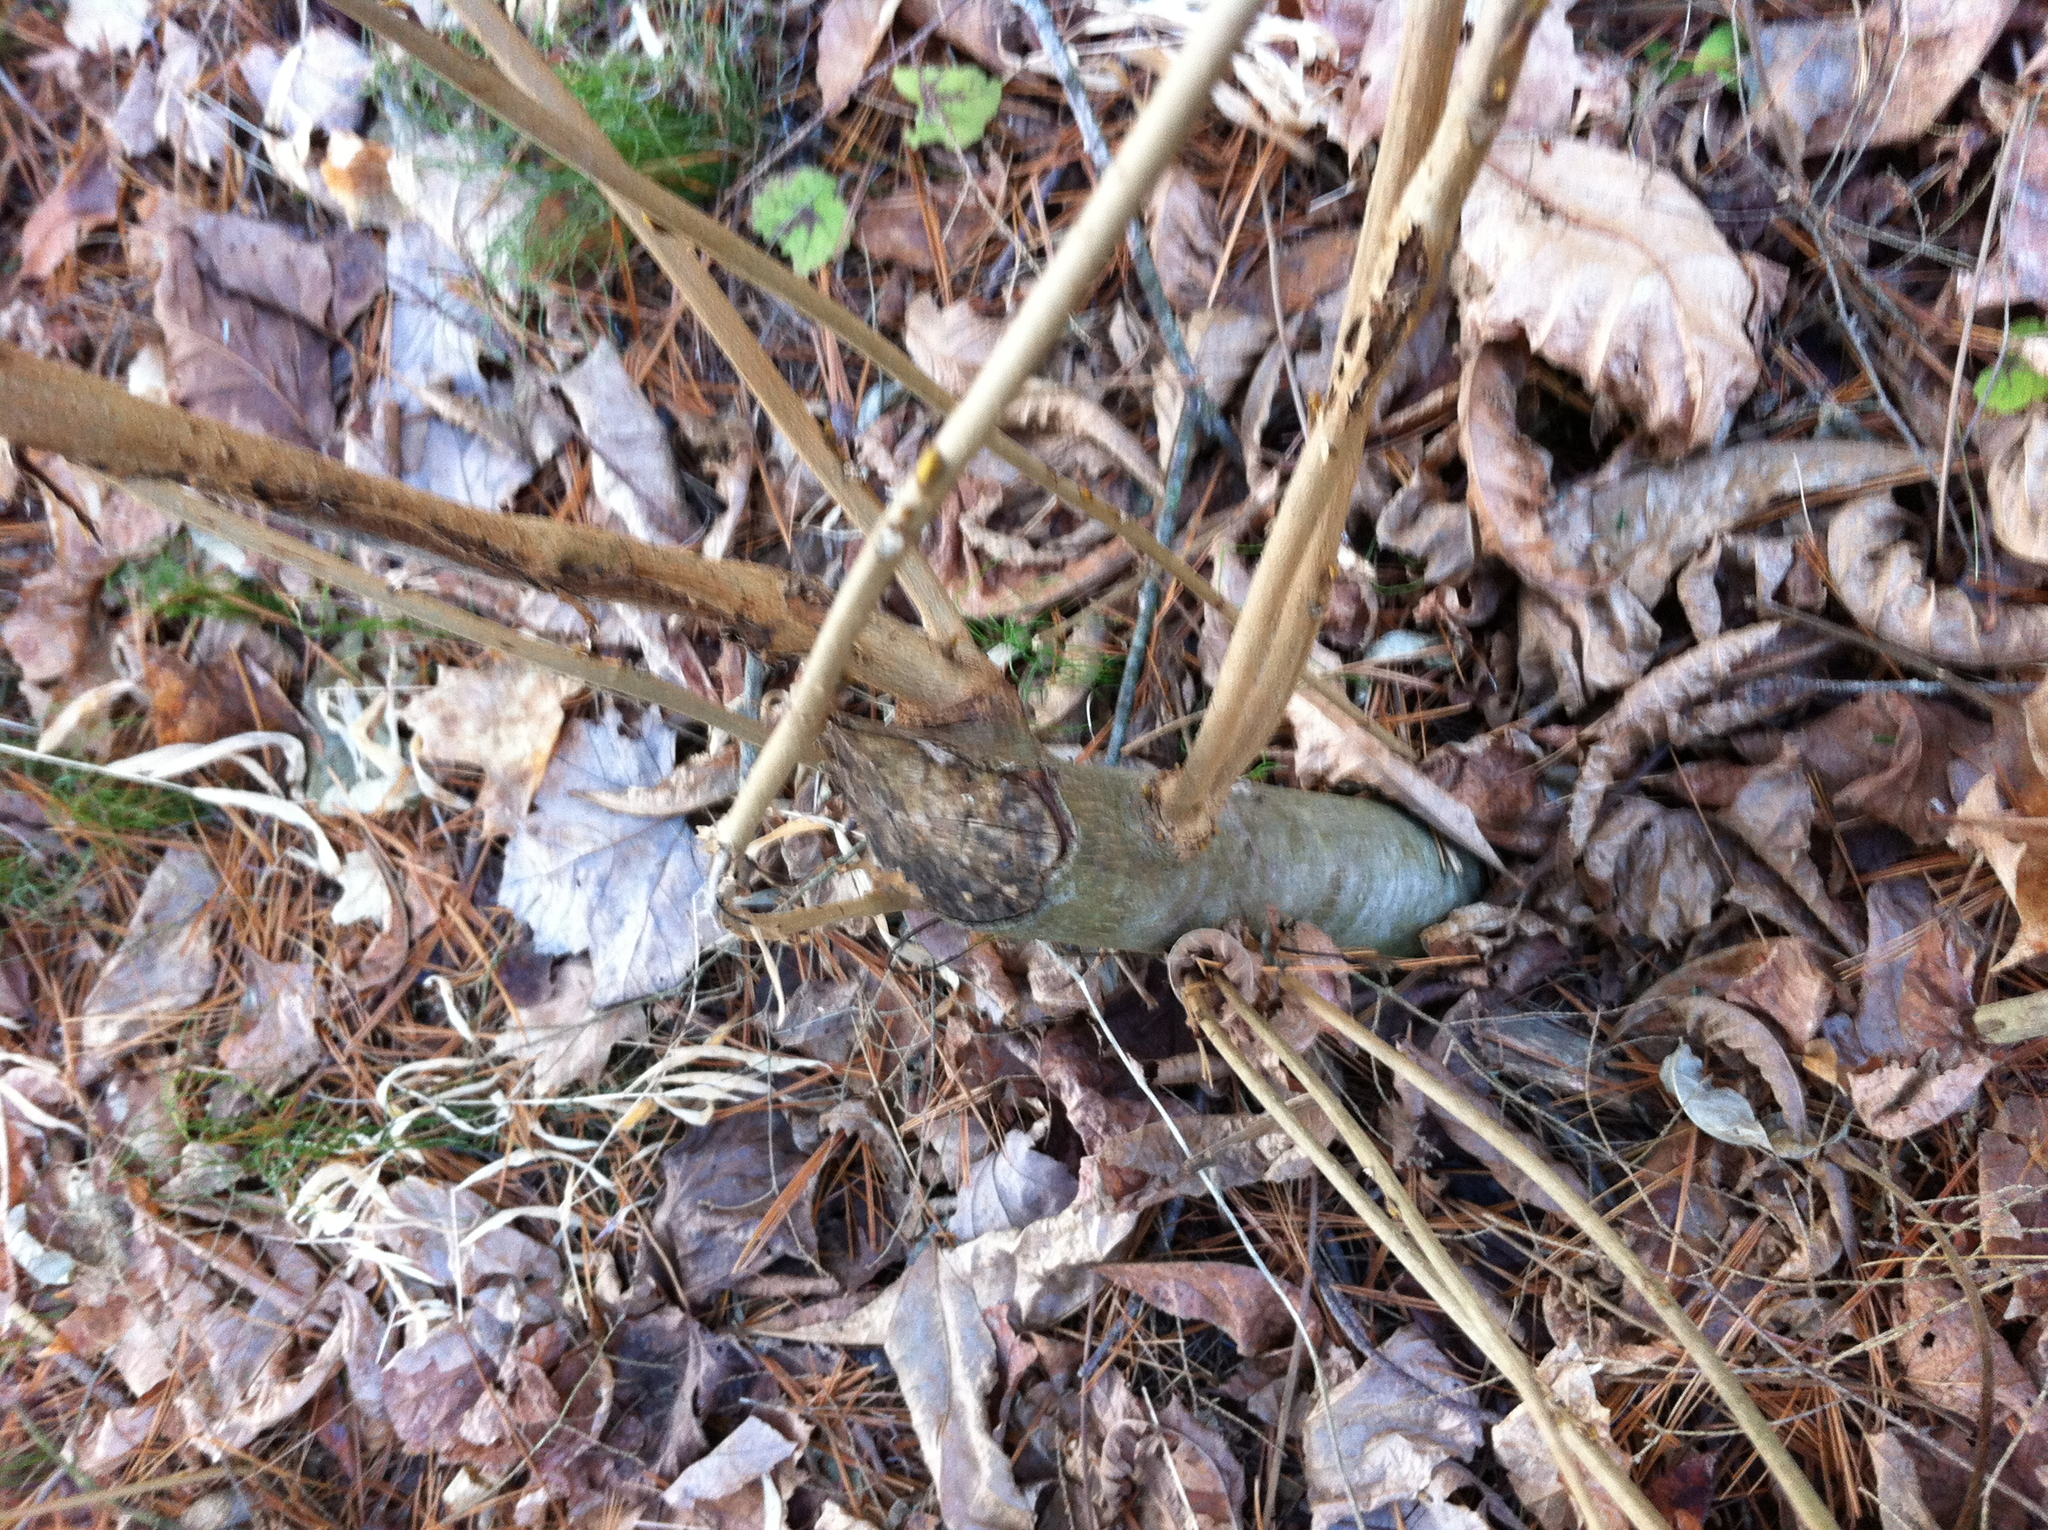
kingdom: Animalia
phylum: Chordata
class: Mammalia
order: Rodentia
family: Castoridae
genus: Castor
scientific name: Castor canadensis
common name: American beaver
